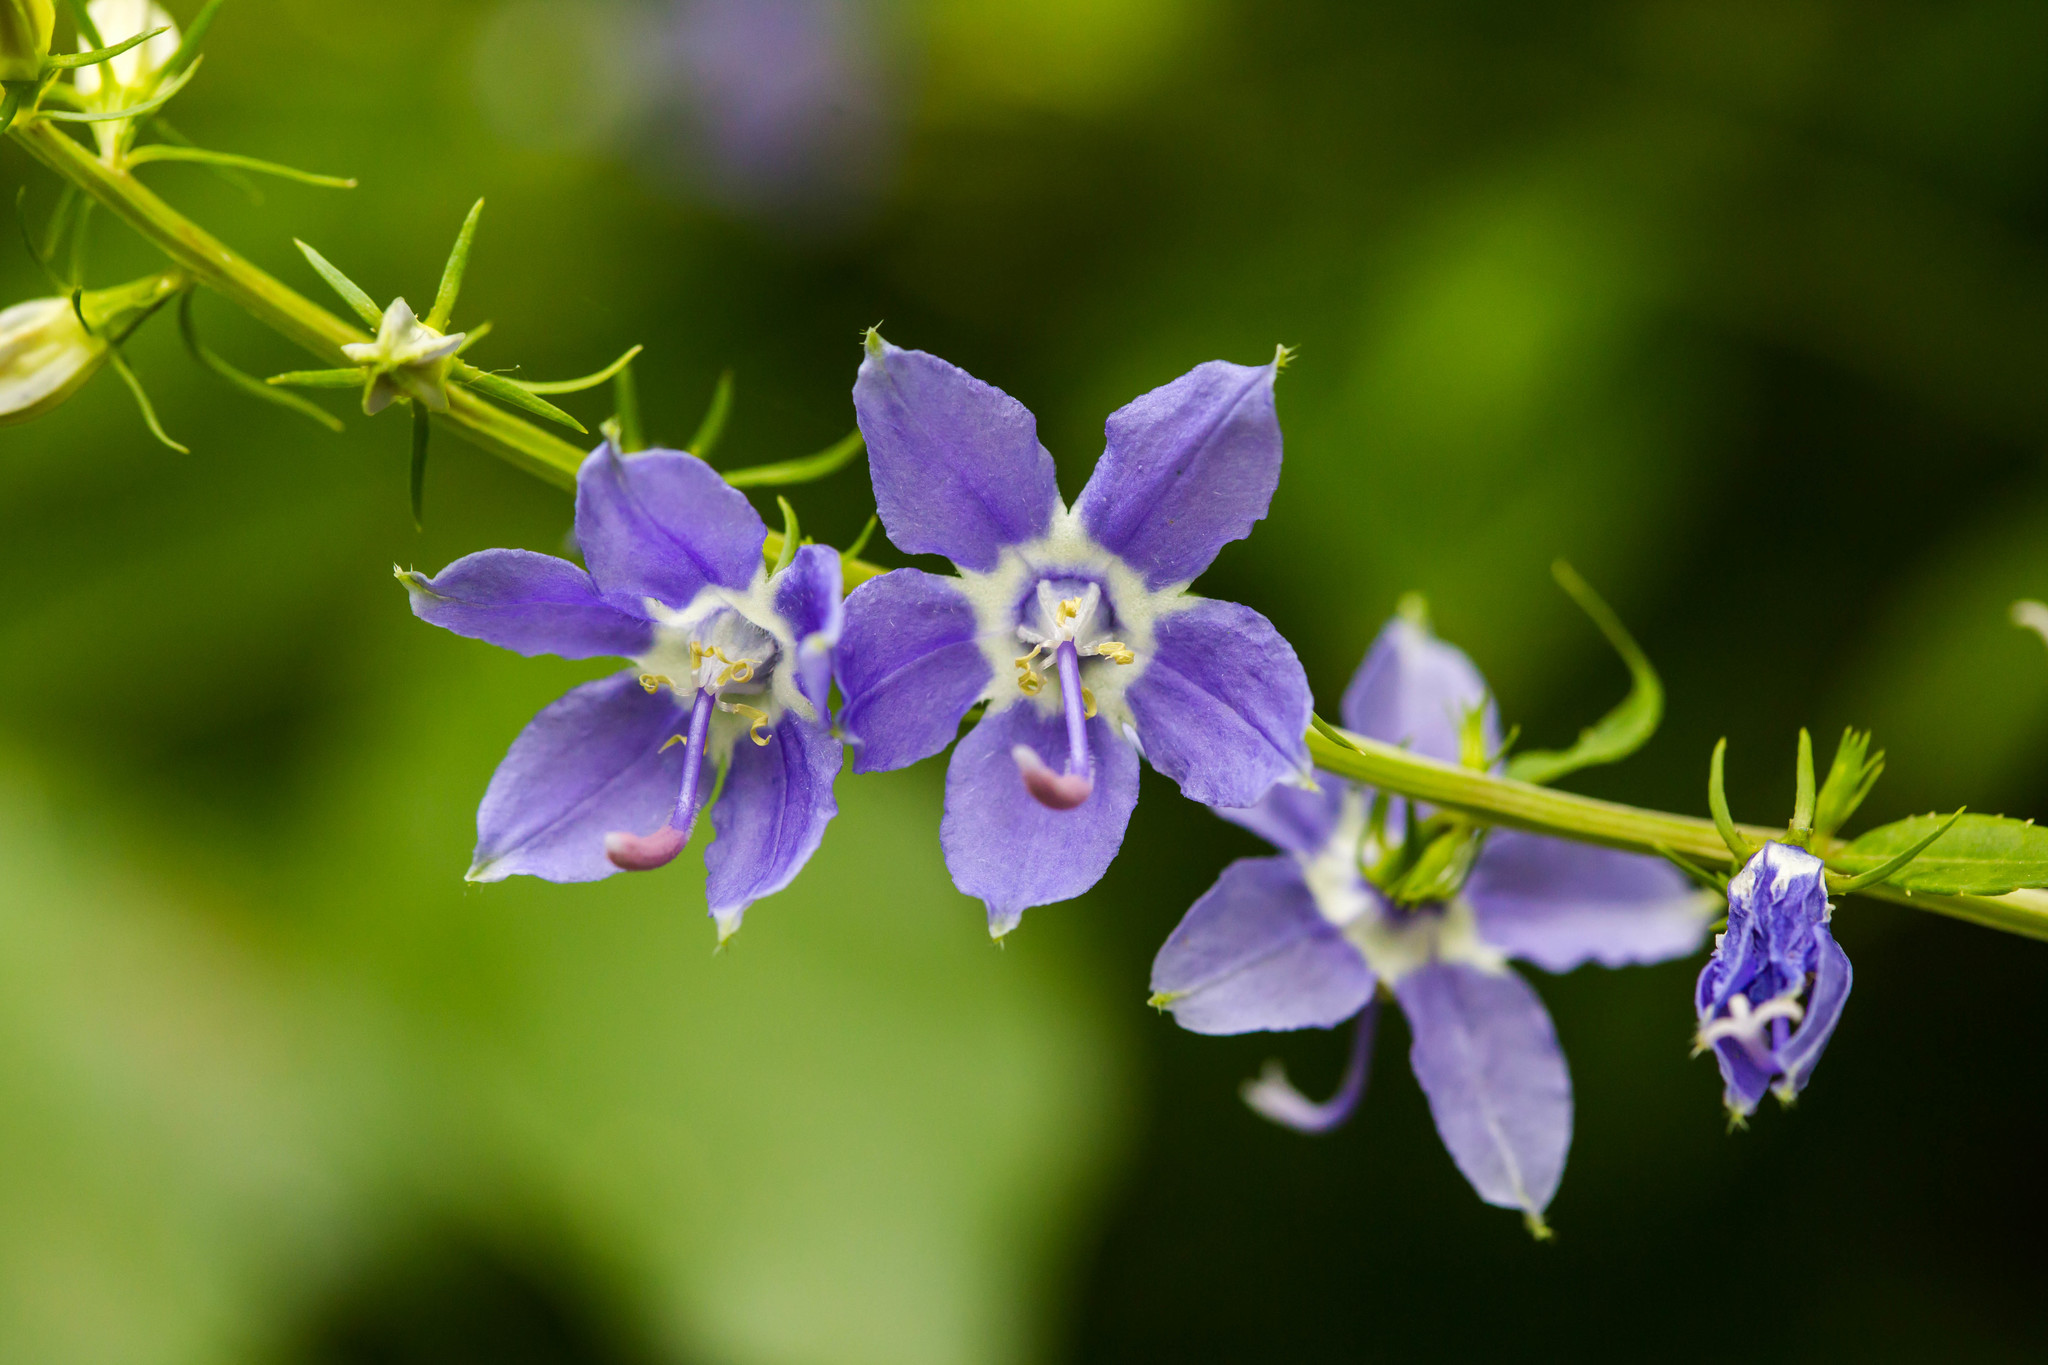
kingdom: Plantae
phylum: Tracheophyta
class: Magnoliopsida
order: Asterales
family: Campanulaceae
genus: Campanulastrum
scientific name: Campanulastrum americanum
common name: American bellflower
